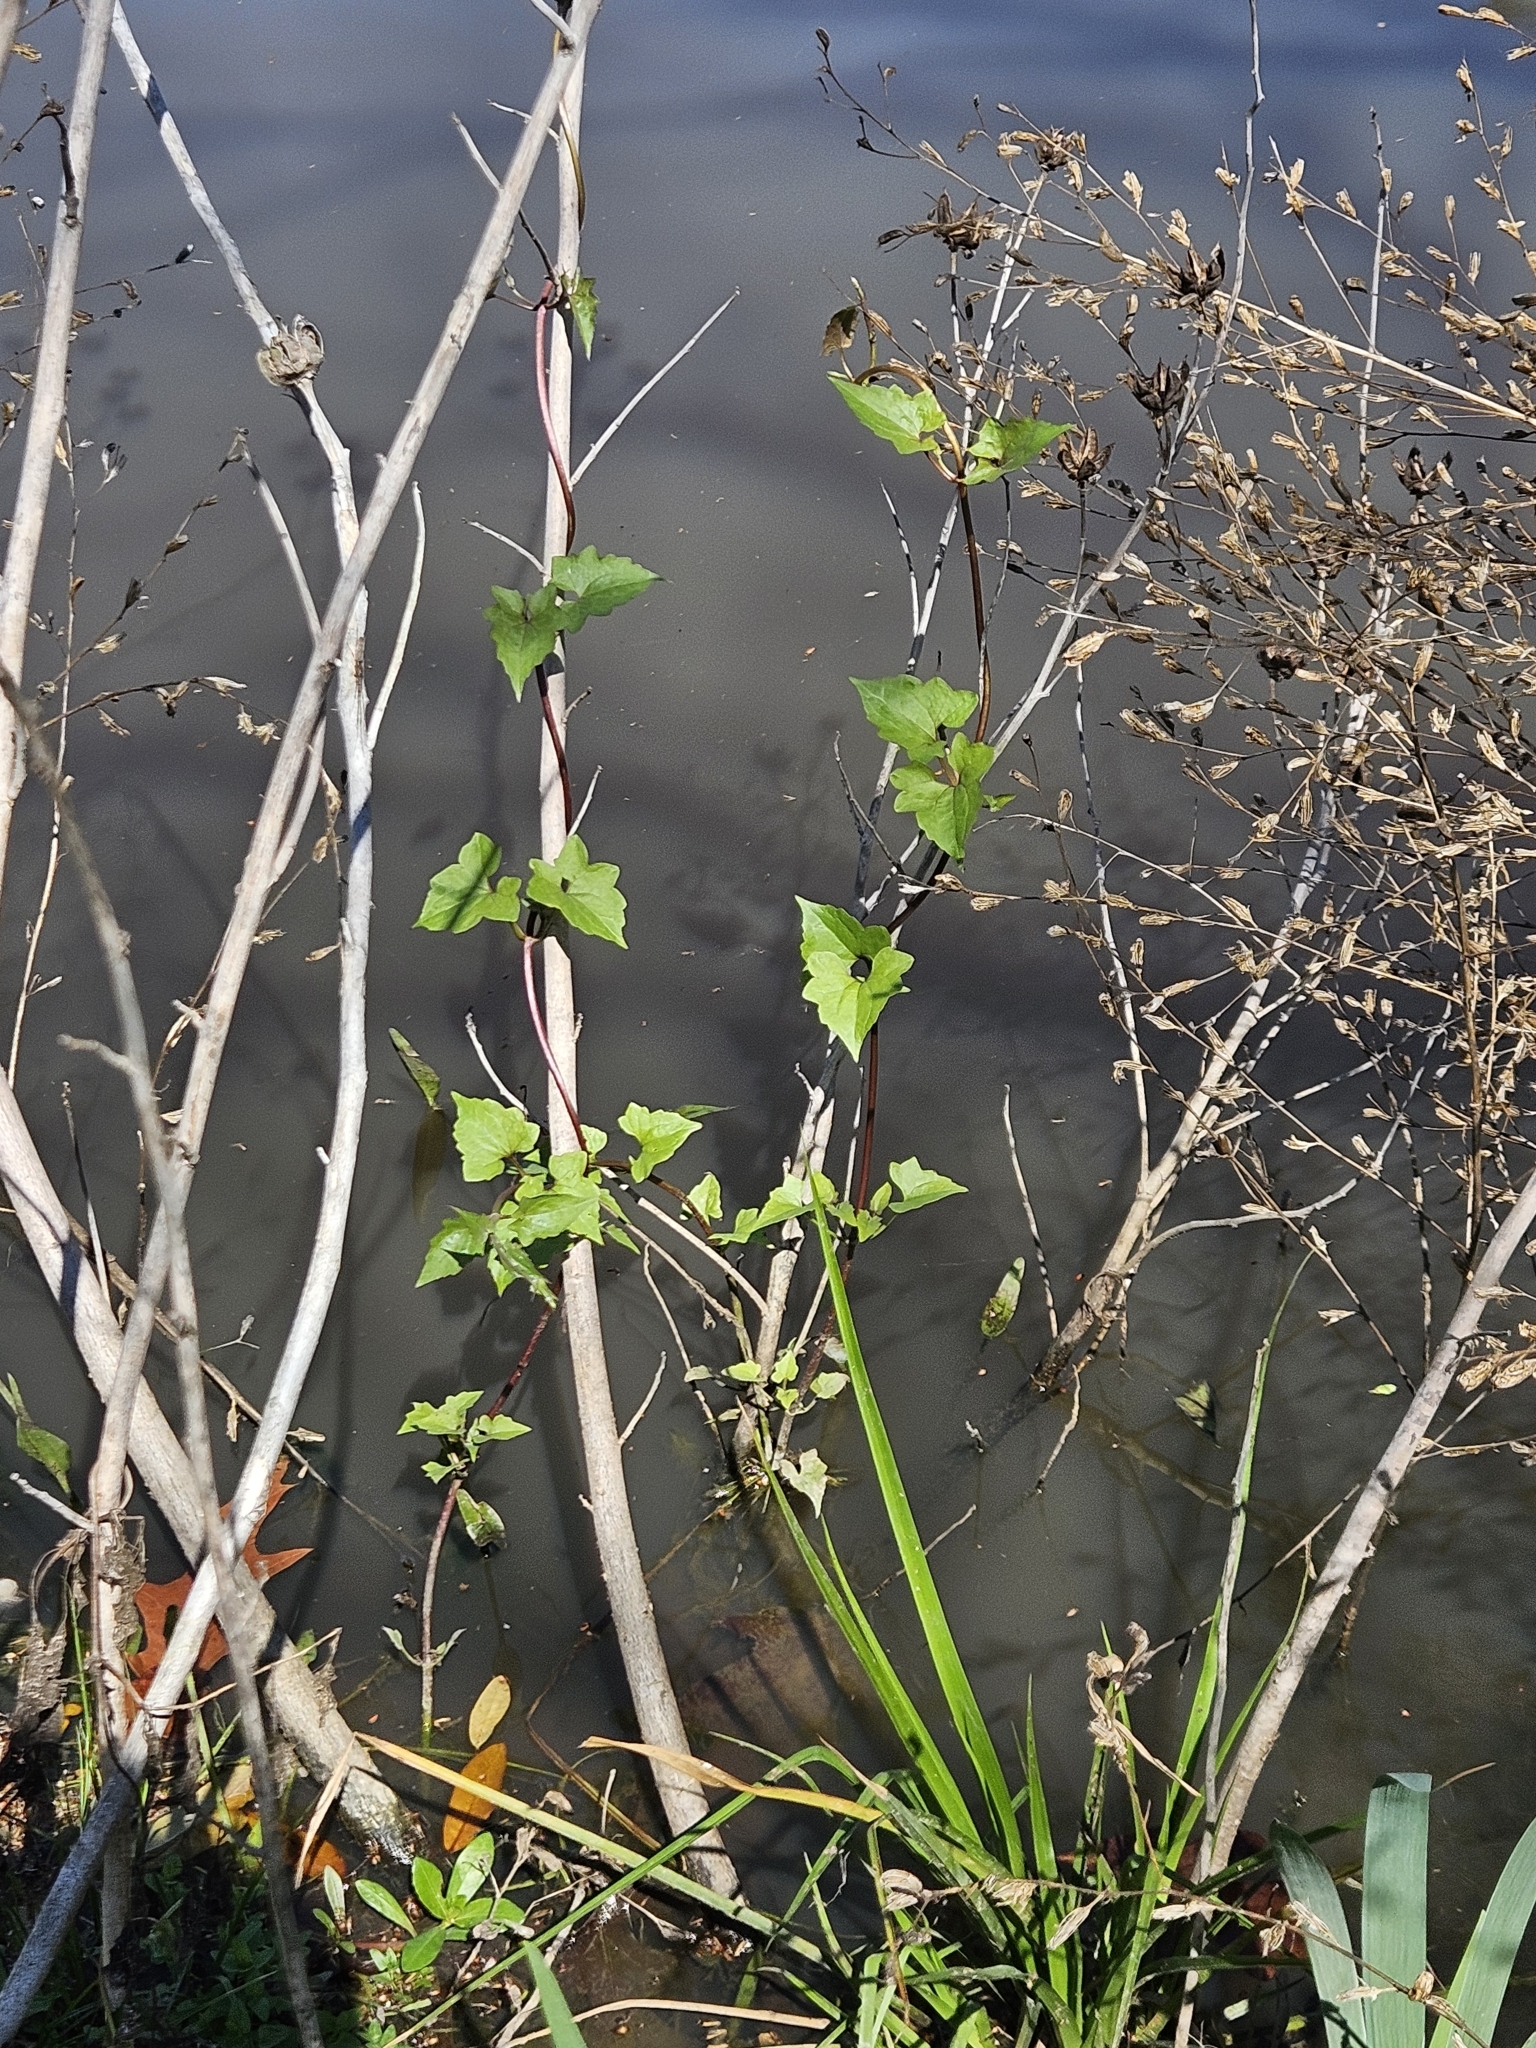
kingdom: Plantae
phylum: Tracheophyta
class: Magnoliopsida
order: Asterales
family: Asteraceae
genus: Mikania
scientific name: Mikania scandens
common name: Climbing hempvine
